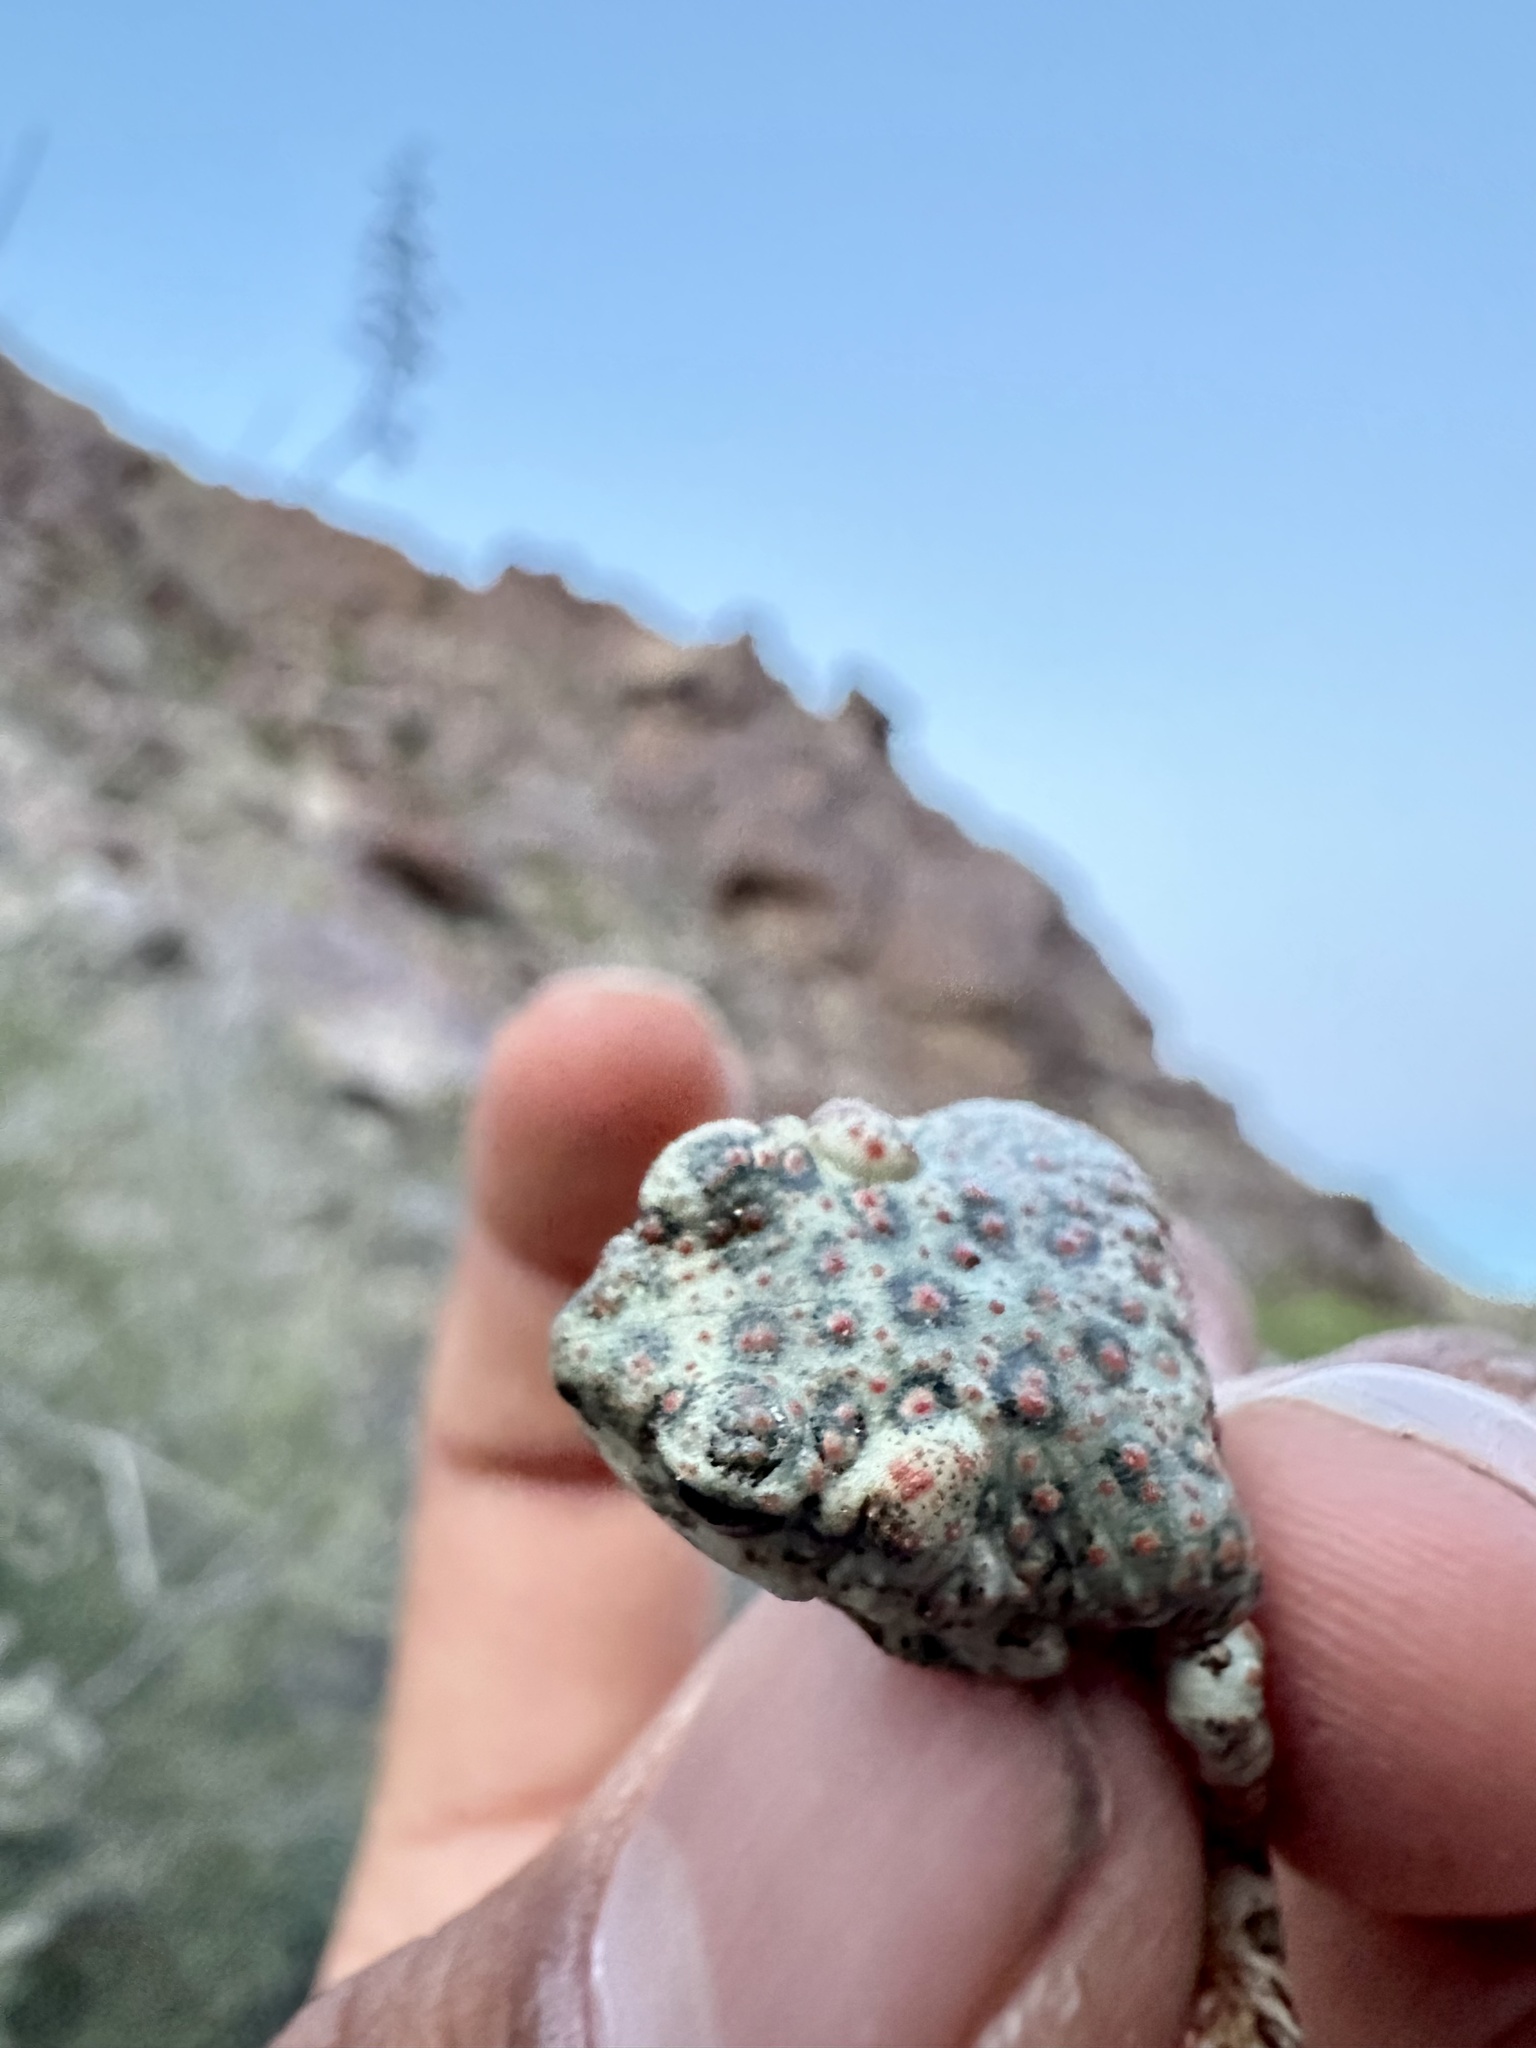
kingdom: Animalia
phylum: Chordata
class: Amphibia
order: Anura
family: Bufonidae
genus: Anaxyrus
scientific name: Anaxyrus punctatus
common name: Red-spotted toad
